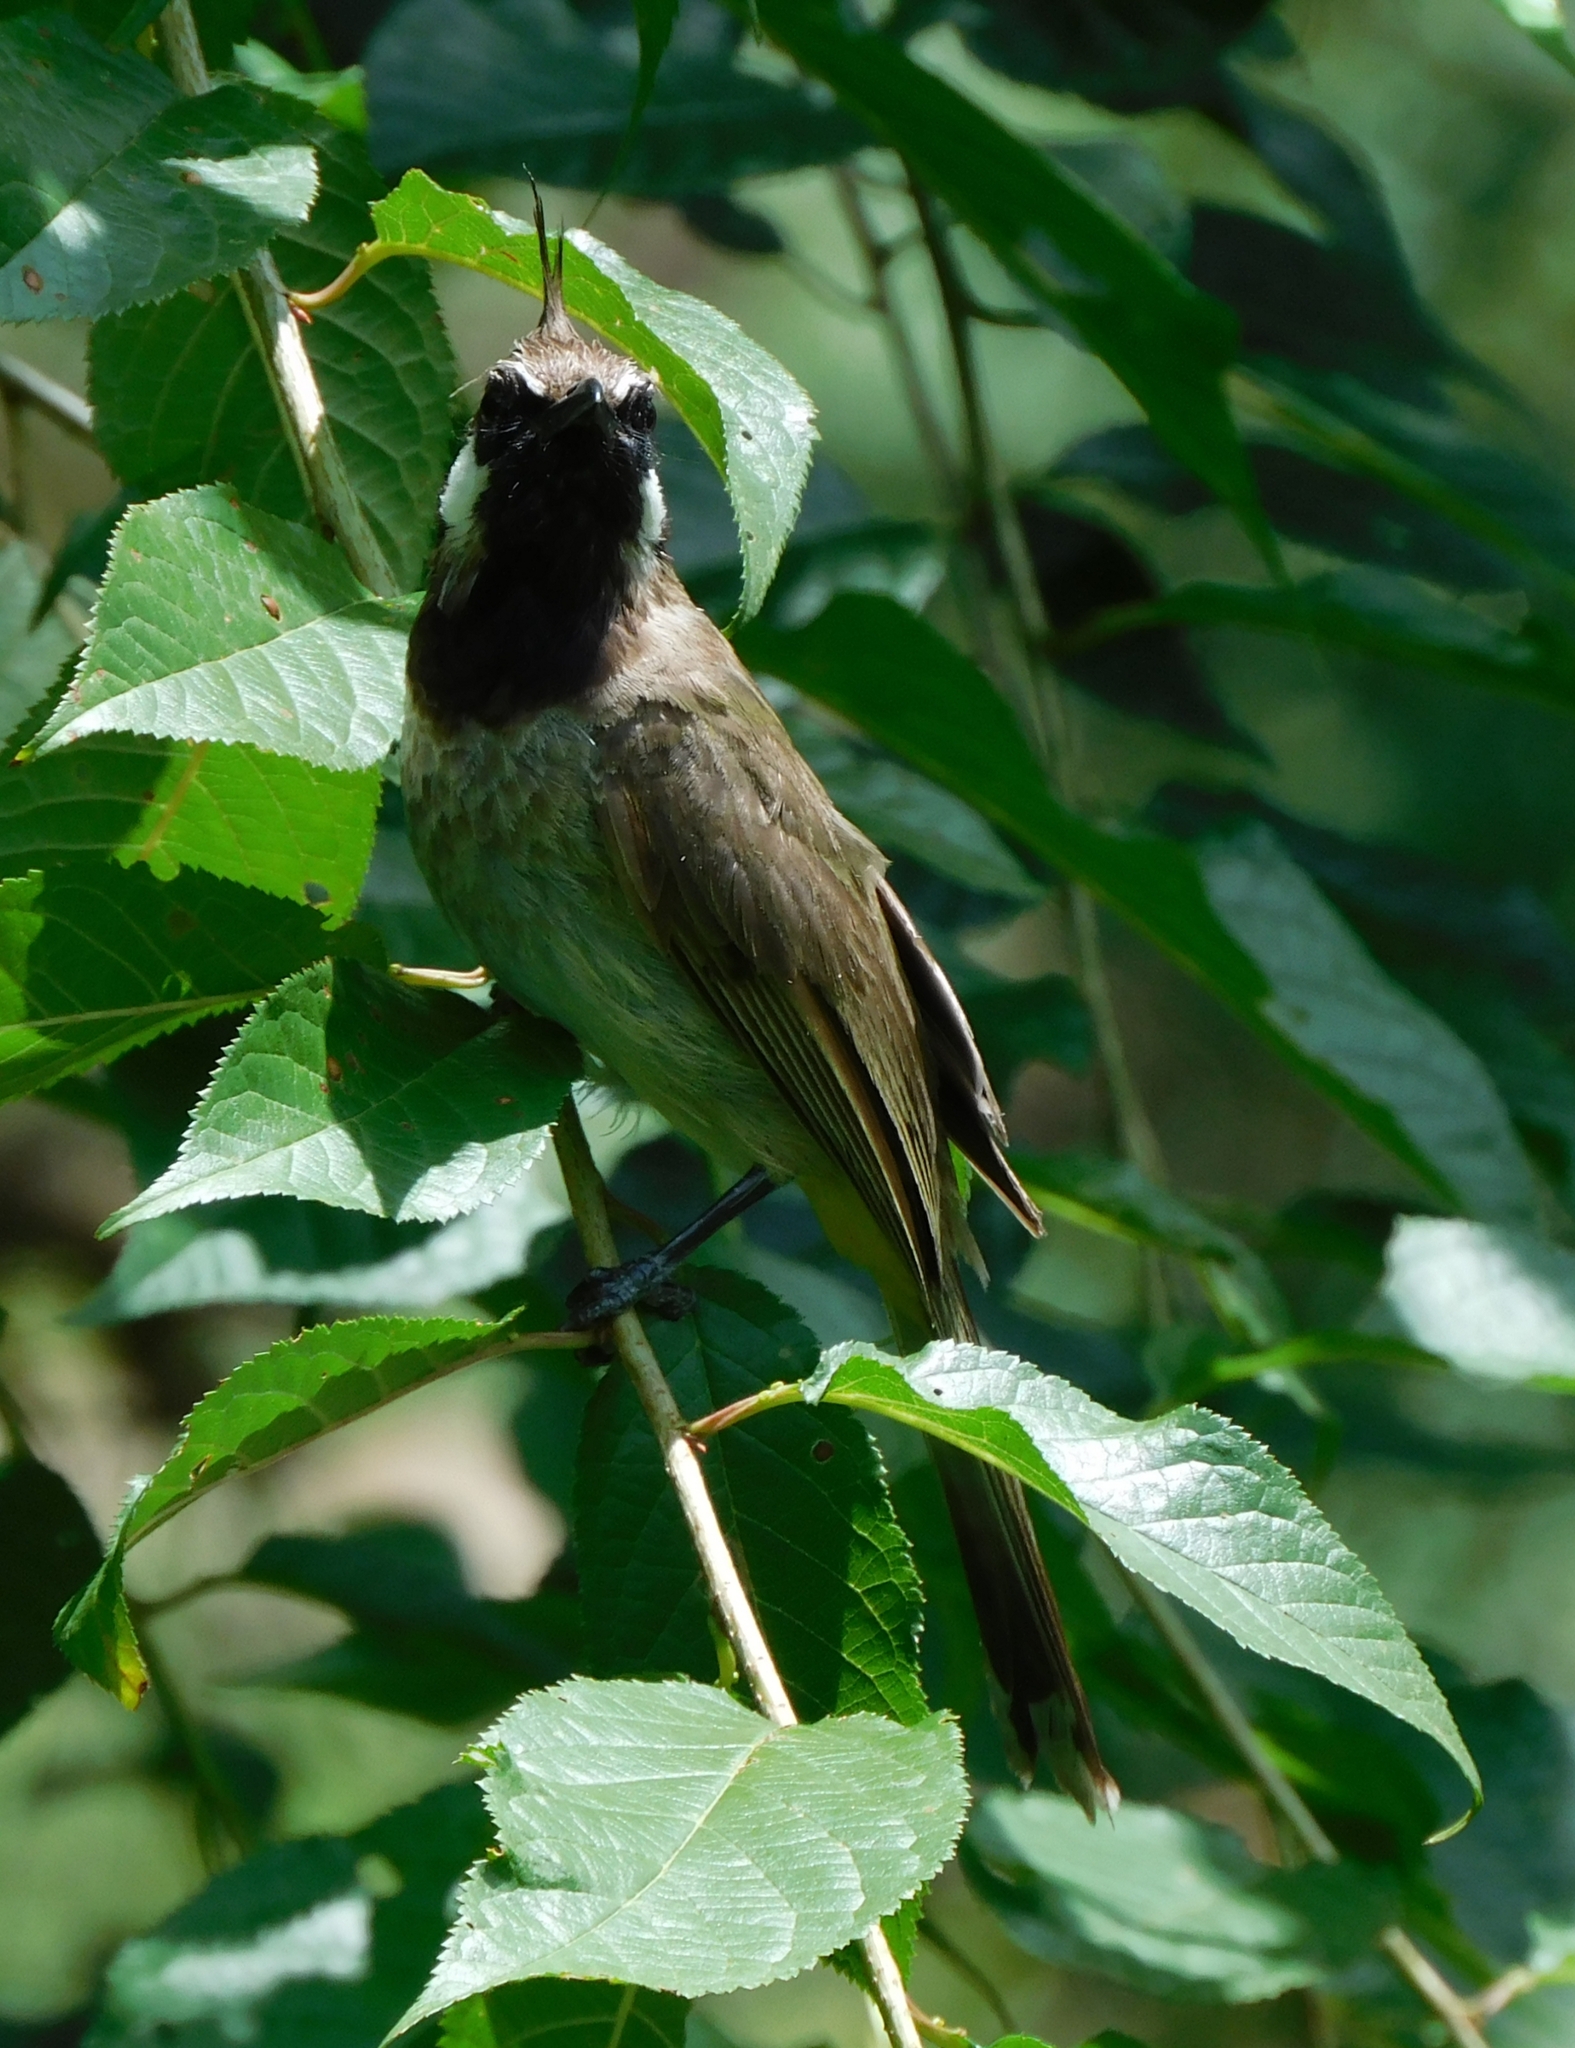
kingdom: Animalia
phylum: Chordata
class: Aves
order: Passeriformes
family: Pycnonotidae
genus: Pycnonotus
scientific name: Pycnonotus leucogenys
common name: Himalayan bulbul
